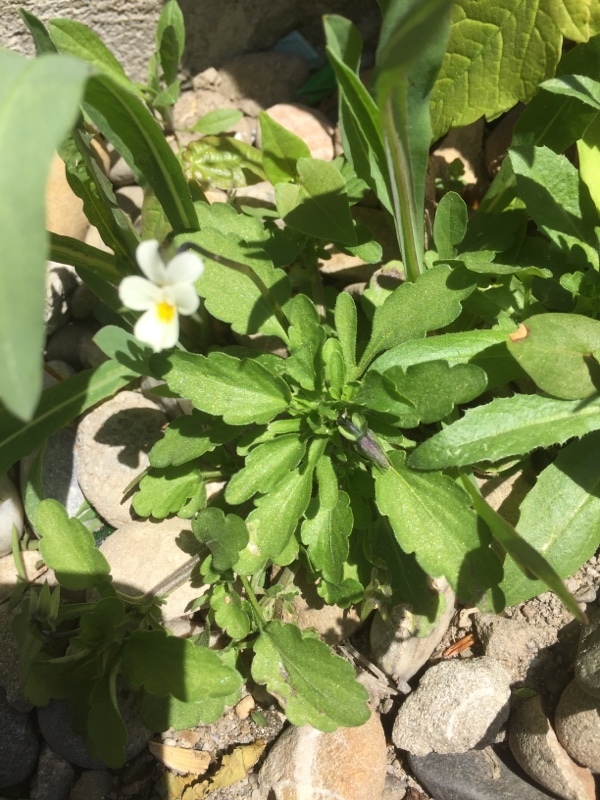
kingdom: Plantae
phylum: Tracheophyta
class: Magnoliopsida
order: Malpighiales
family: Violaceae
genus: Viola
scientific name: Viola arvensis
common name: Field pansy
